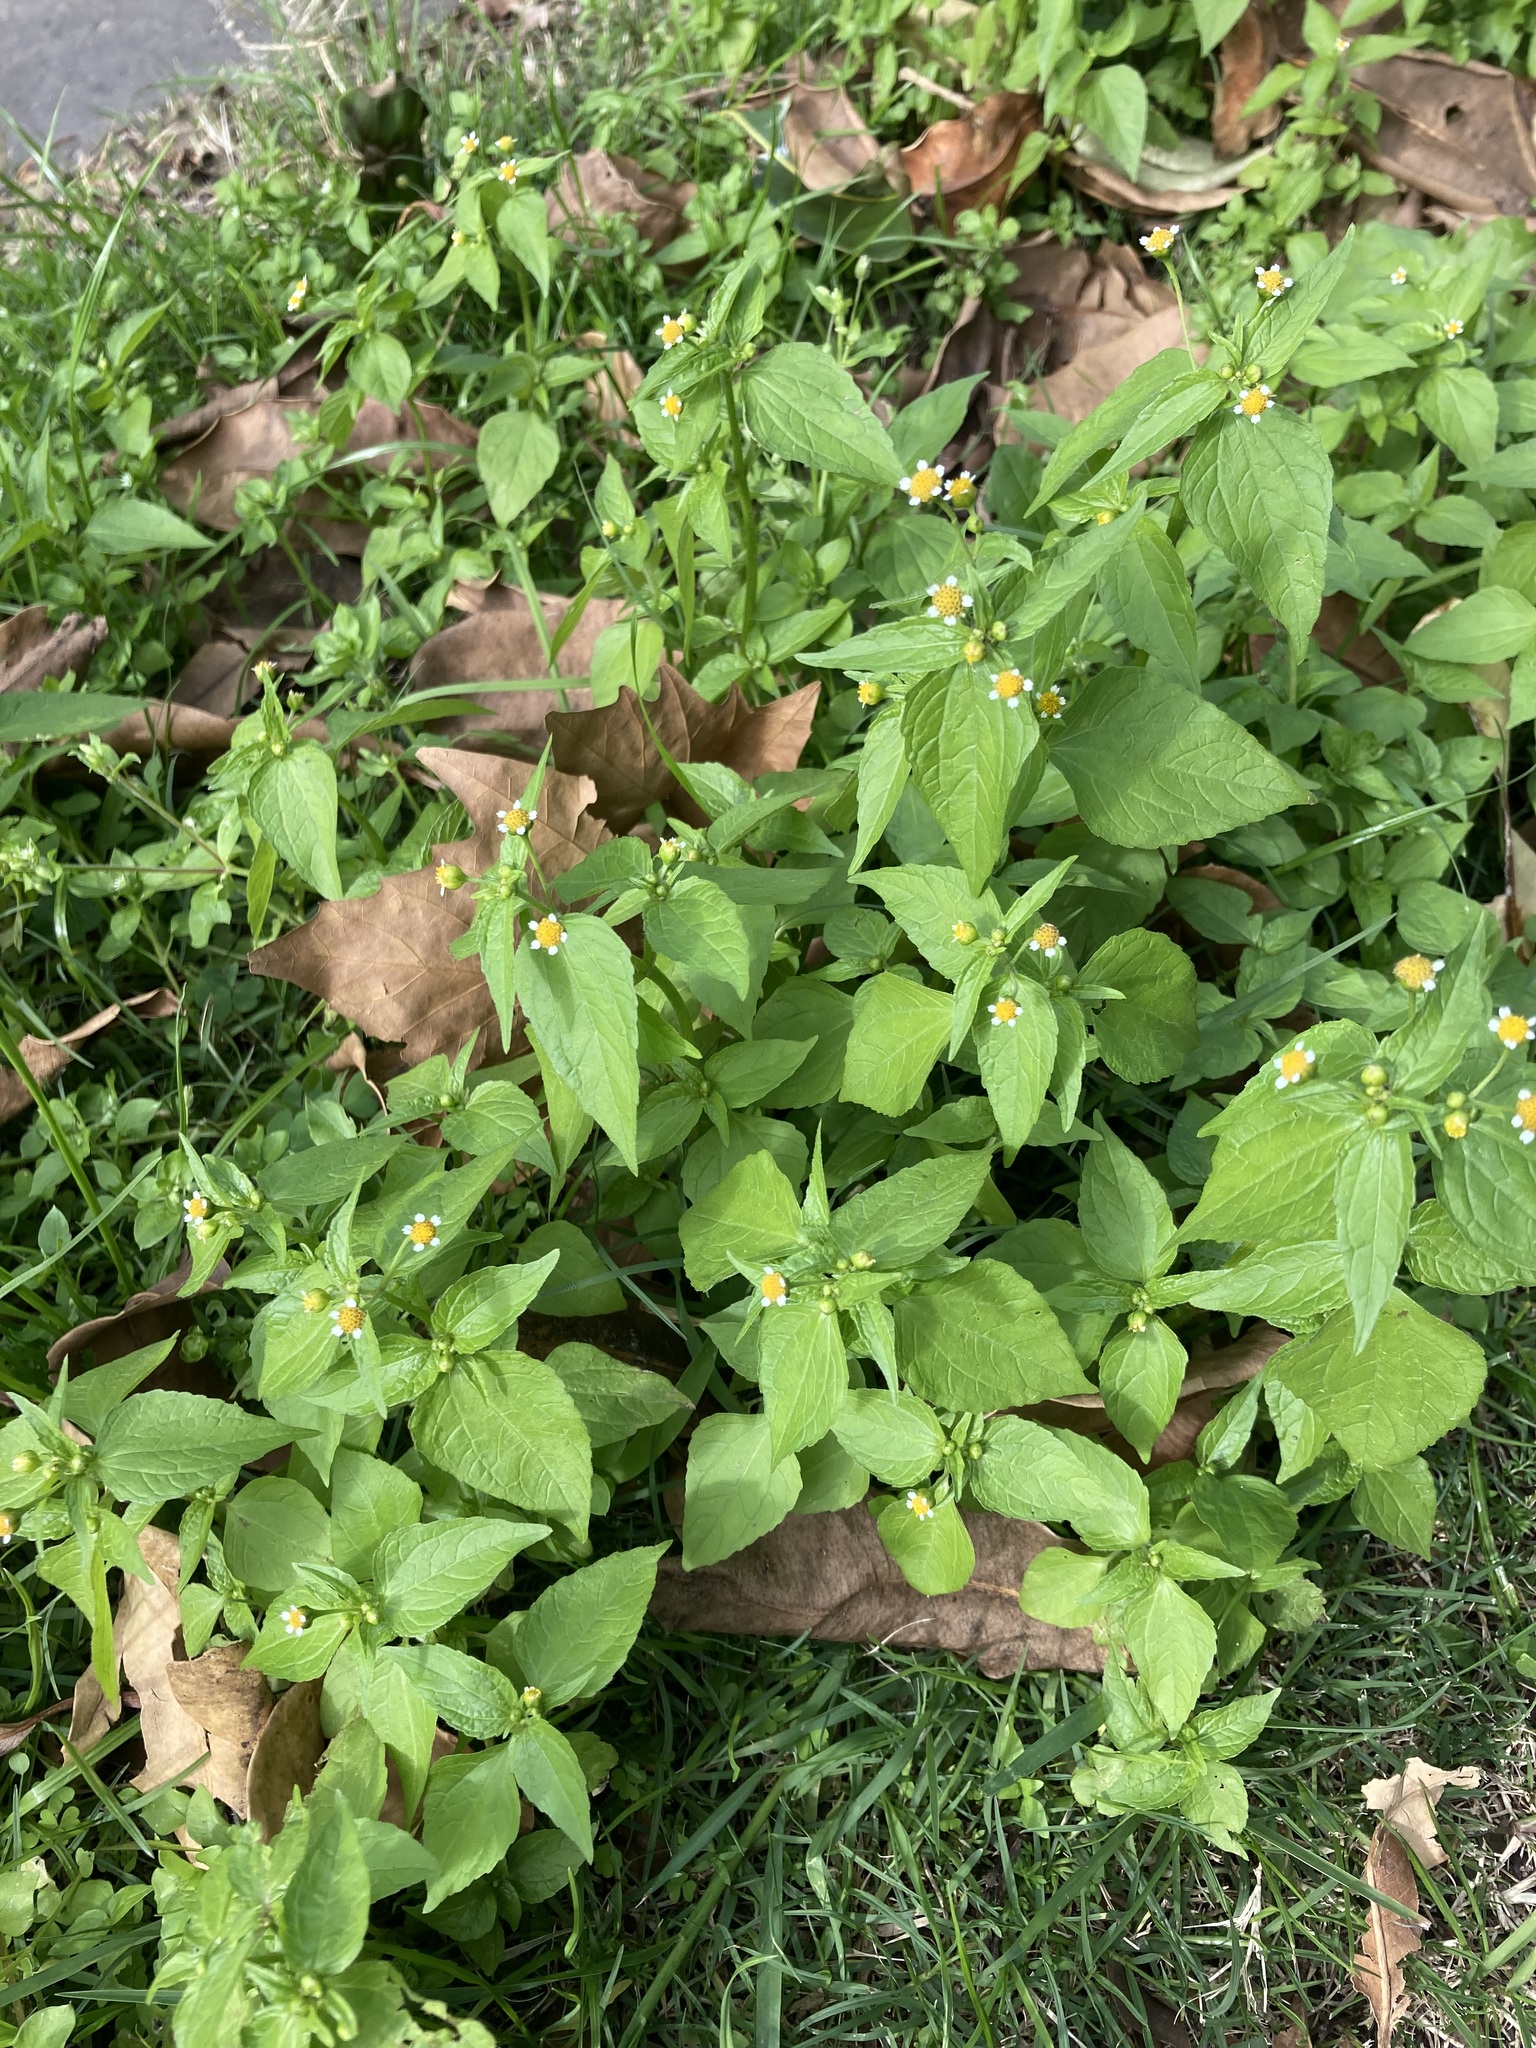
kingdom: Plantae
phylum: Tracheophyta
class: Magnoliopsida
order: Asterales
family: Asteraceae
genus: Galinsoga
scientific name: Galinsoga parviflora
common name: Gallant soldier
